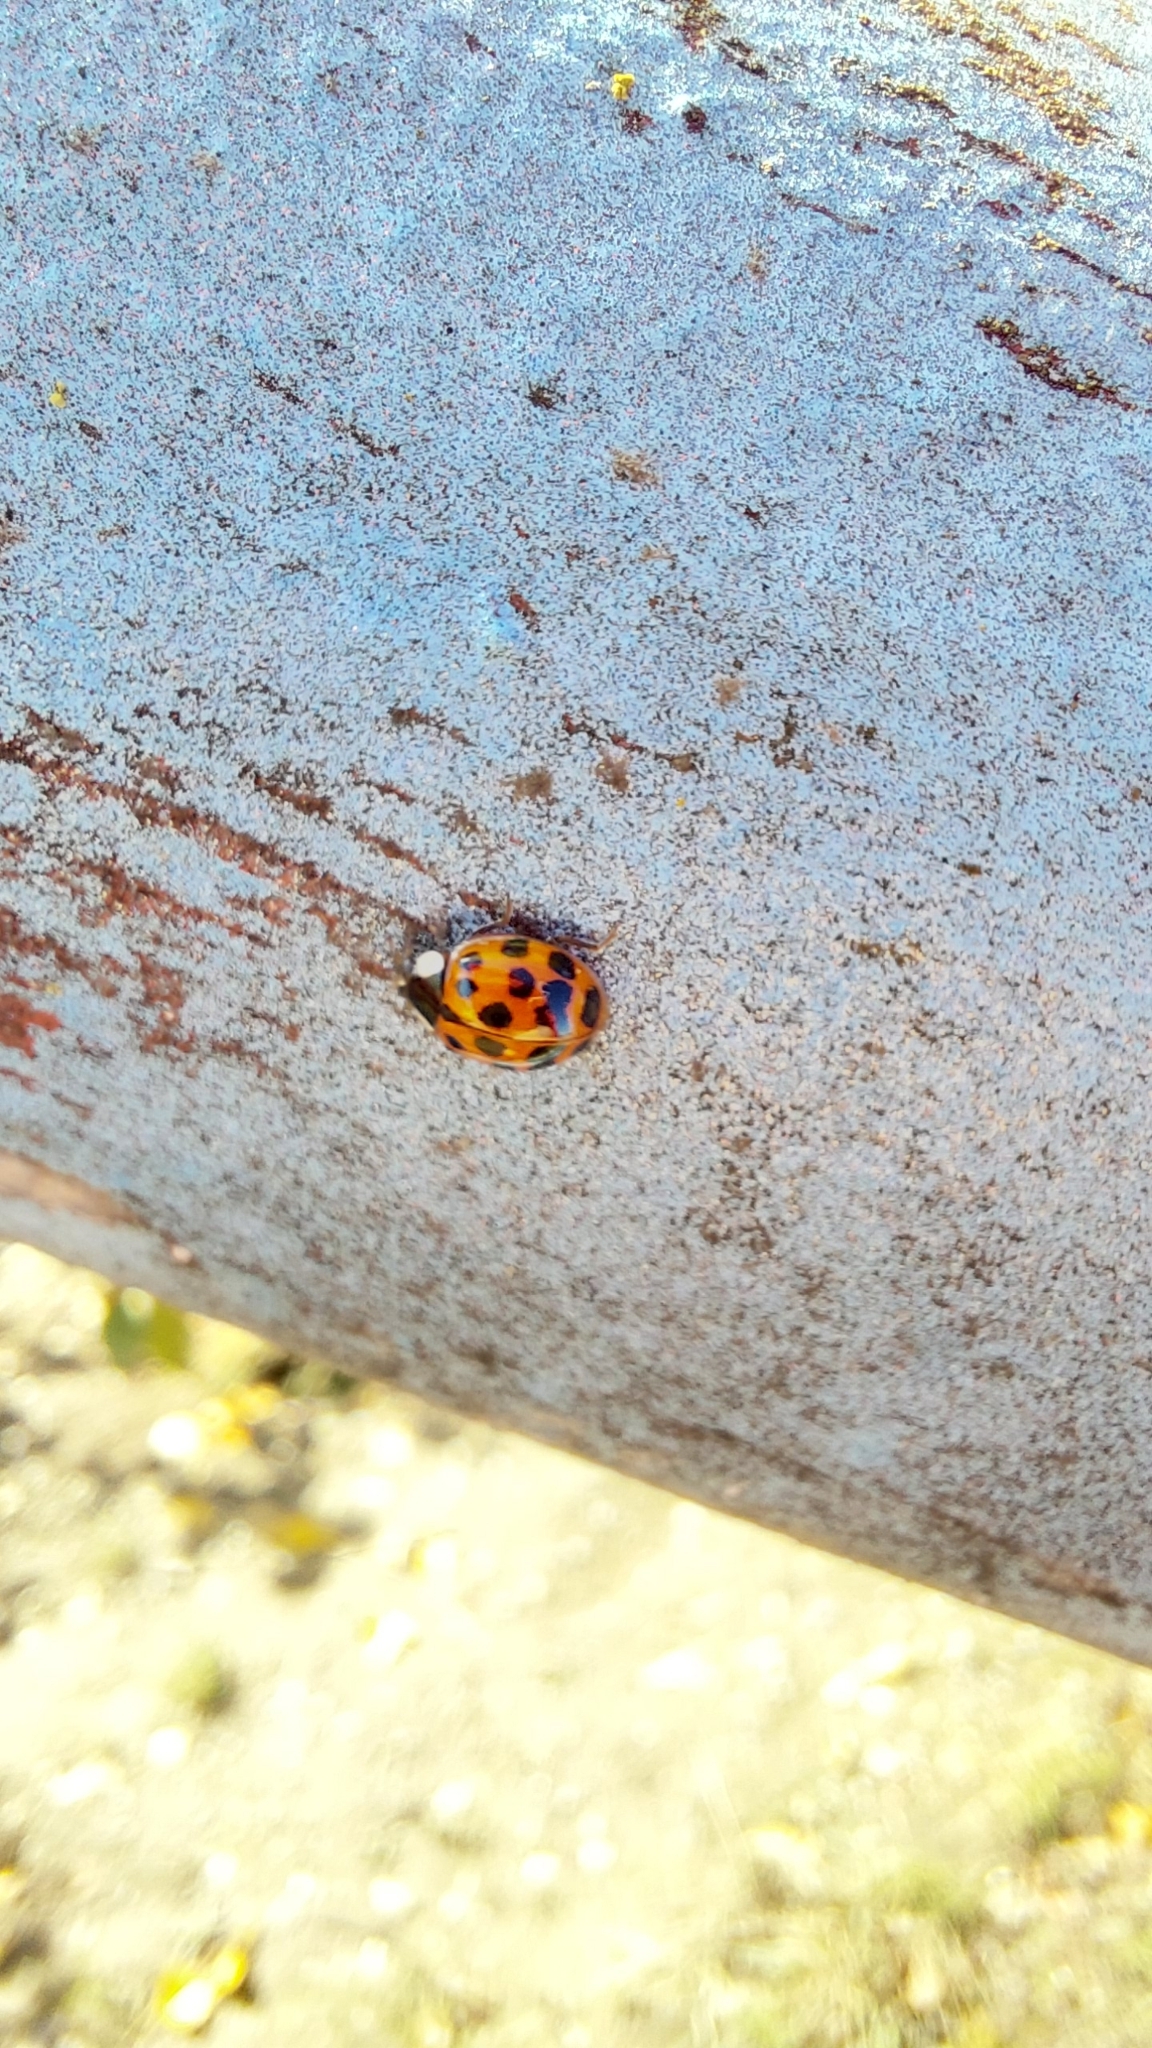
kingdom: Animalia
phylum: Arthropoda
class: Insecta
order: Coleoptera
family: Coccinellidae
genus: Harmonia
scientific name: Harmonia axyridis
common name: Harlequin ladybird
